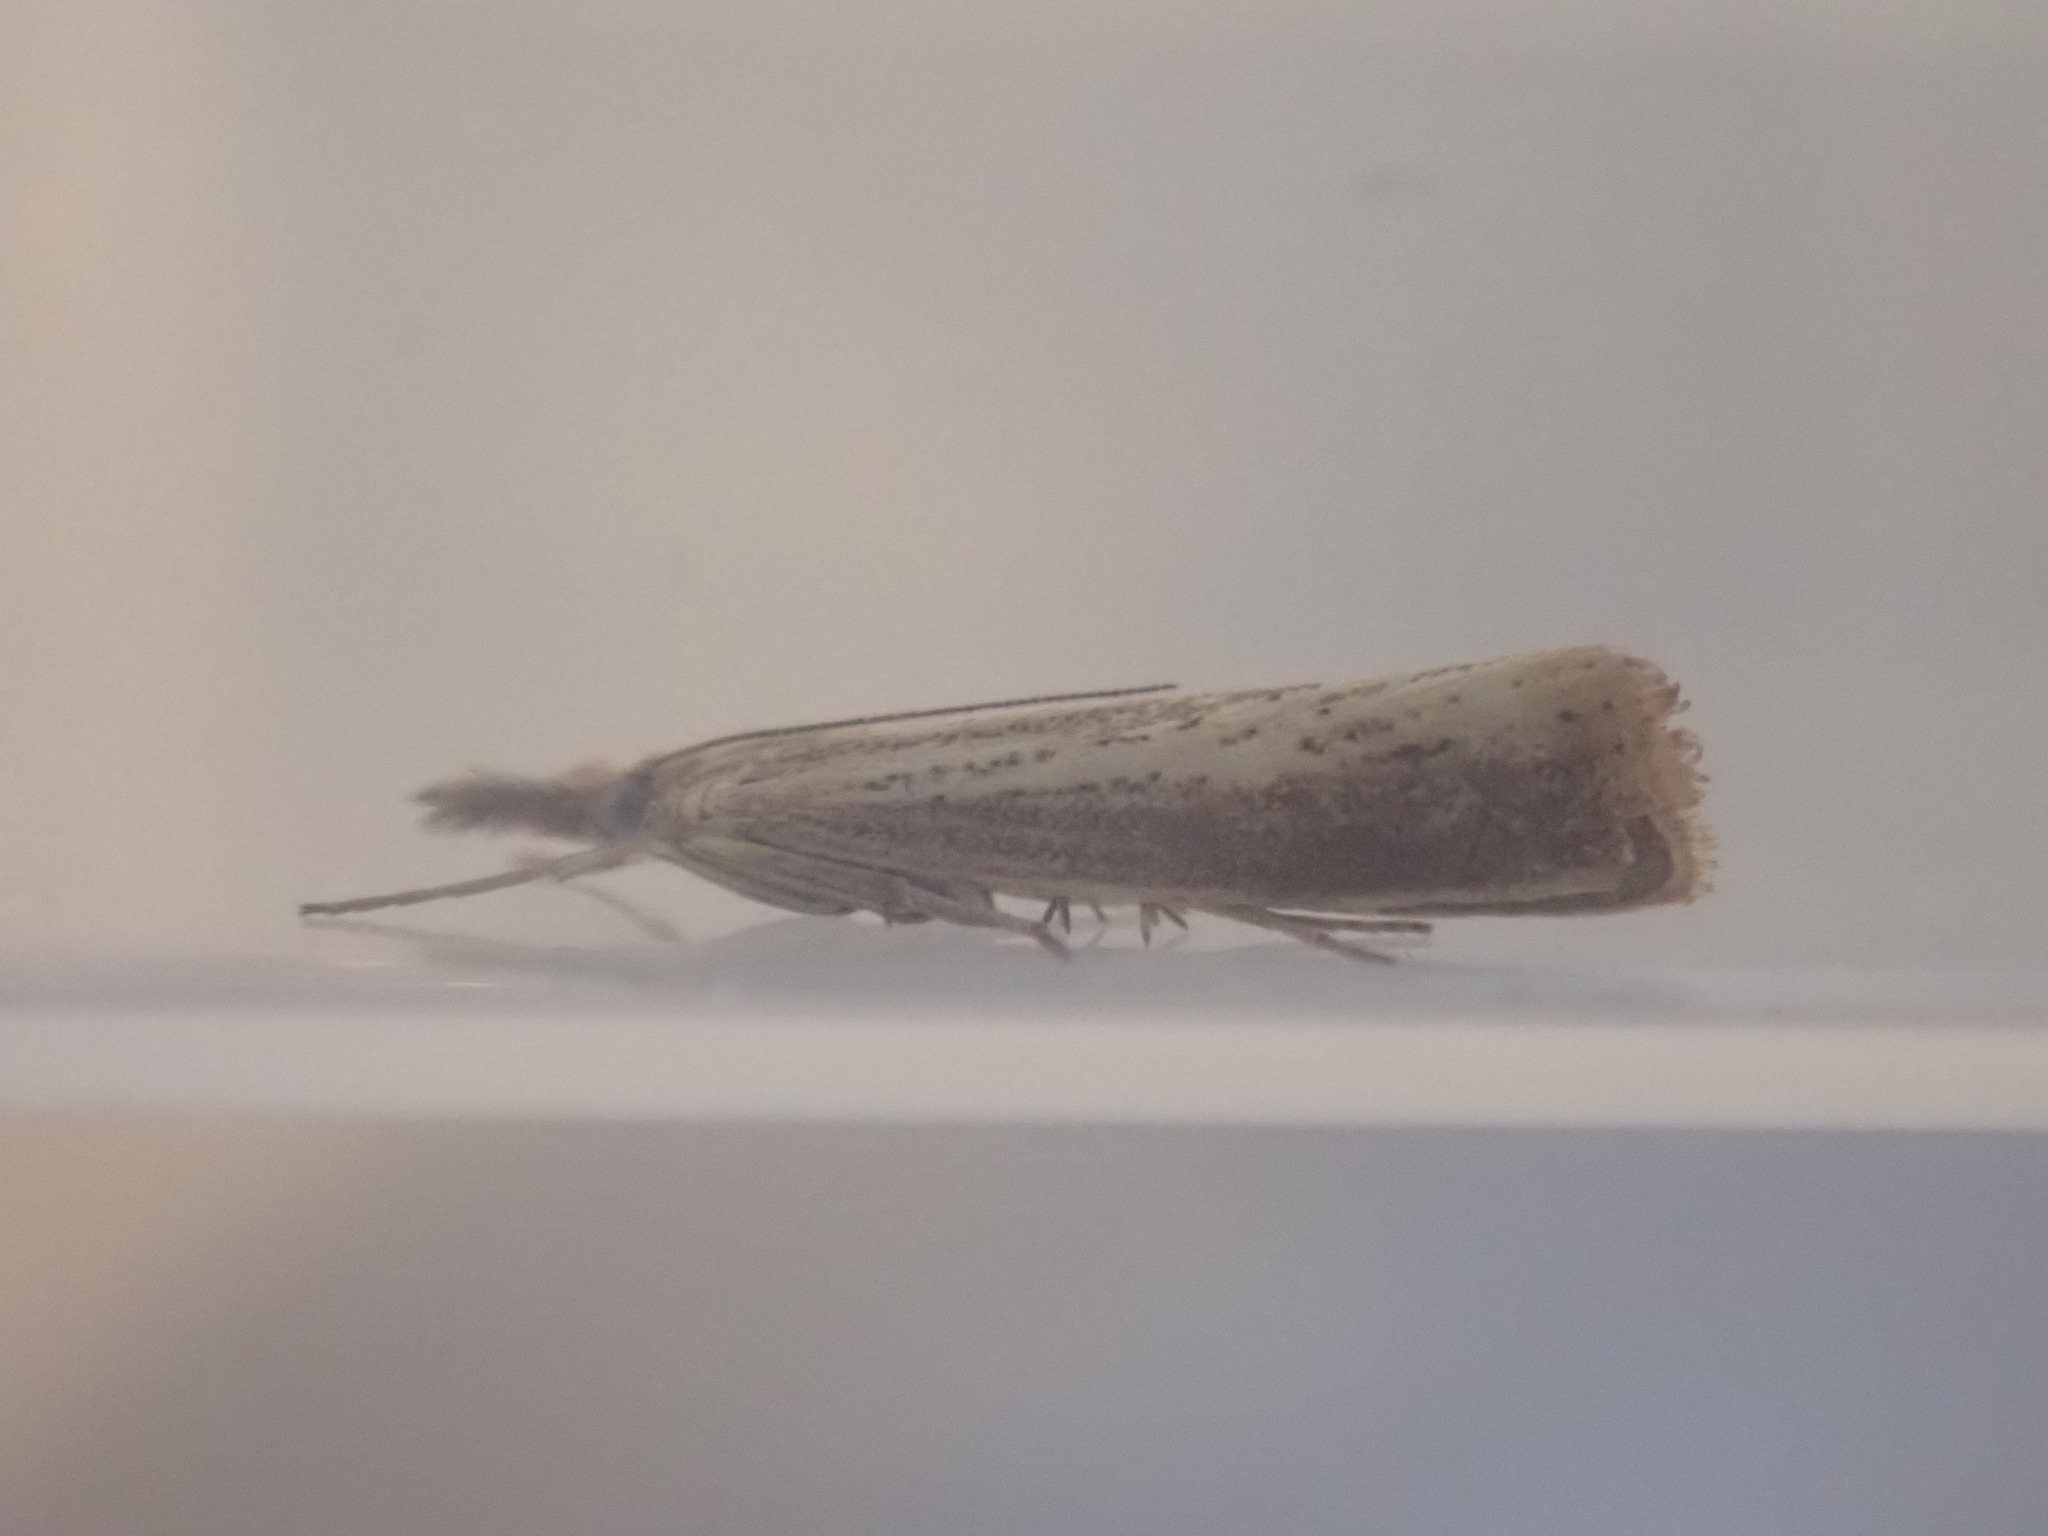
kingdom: Animalia
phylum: Arthropoda
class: Insecta
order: Lepidoptera
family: Crambidae
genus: Agriphila
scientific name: Agriphila straminella
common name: Straw grass-veneer
